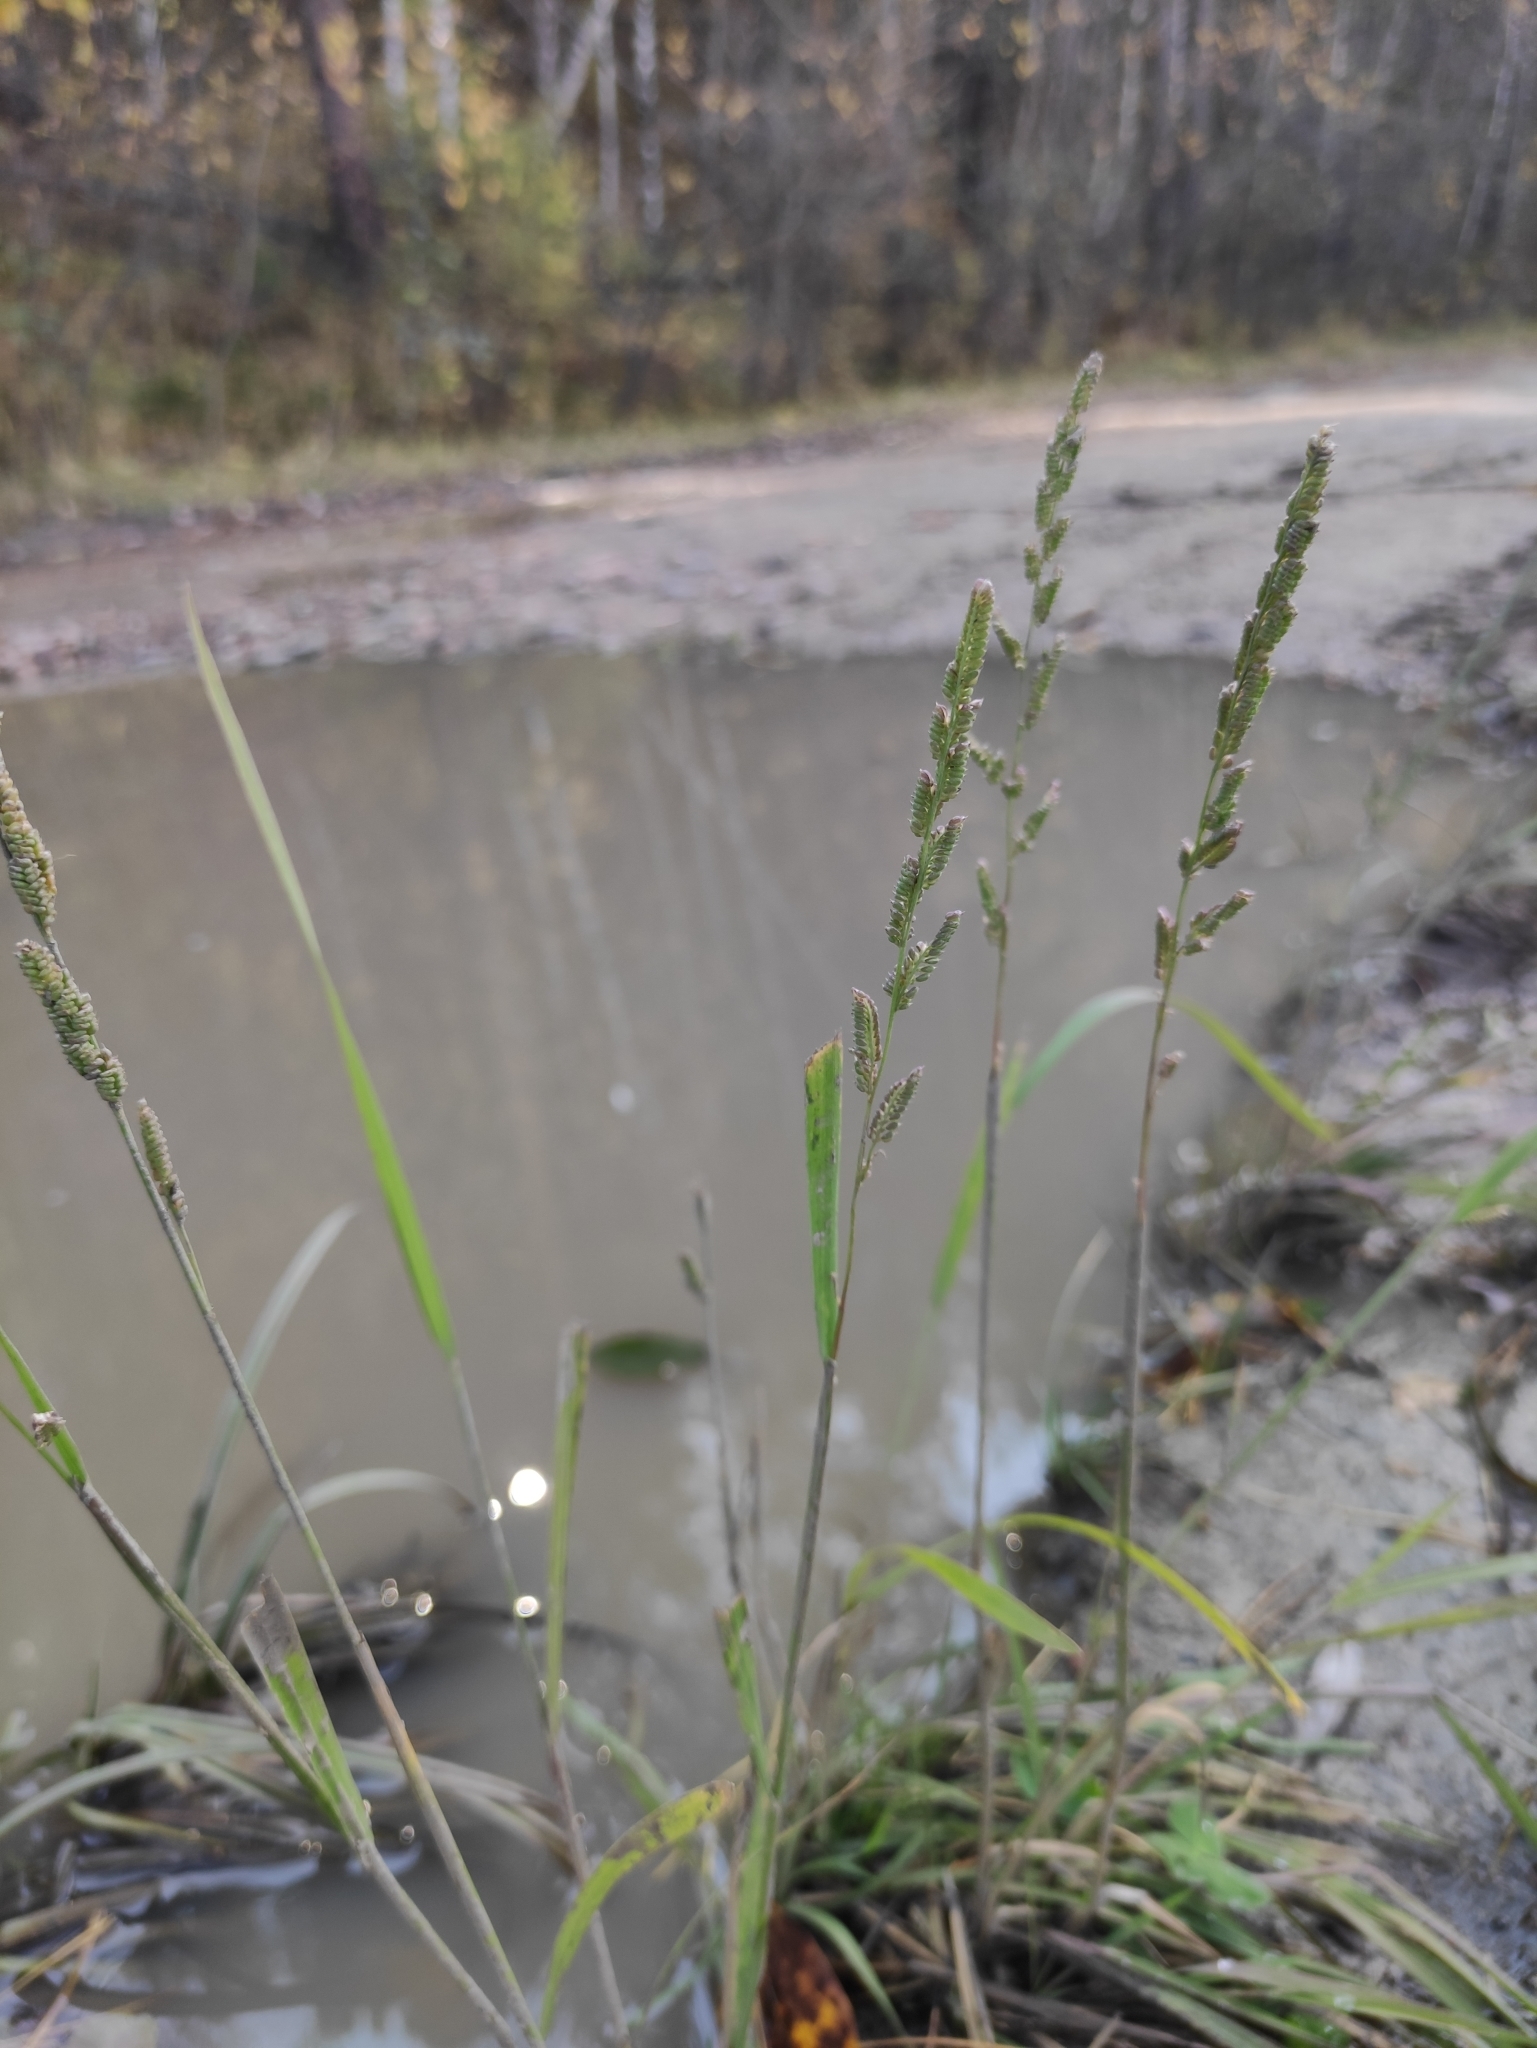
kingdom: Plantae
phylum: Tracheophyta
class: Liliopsida
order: Poales
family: Poaceae
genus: Beckmannia
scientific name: Beckmannia syzigachne
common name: American slough-grass
